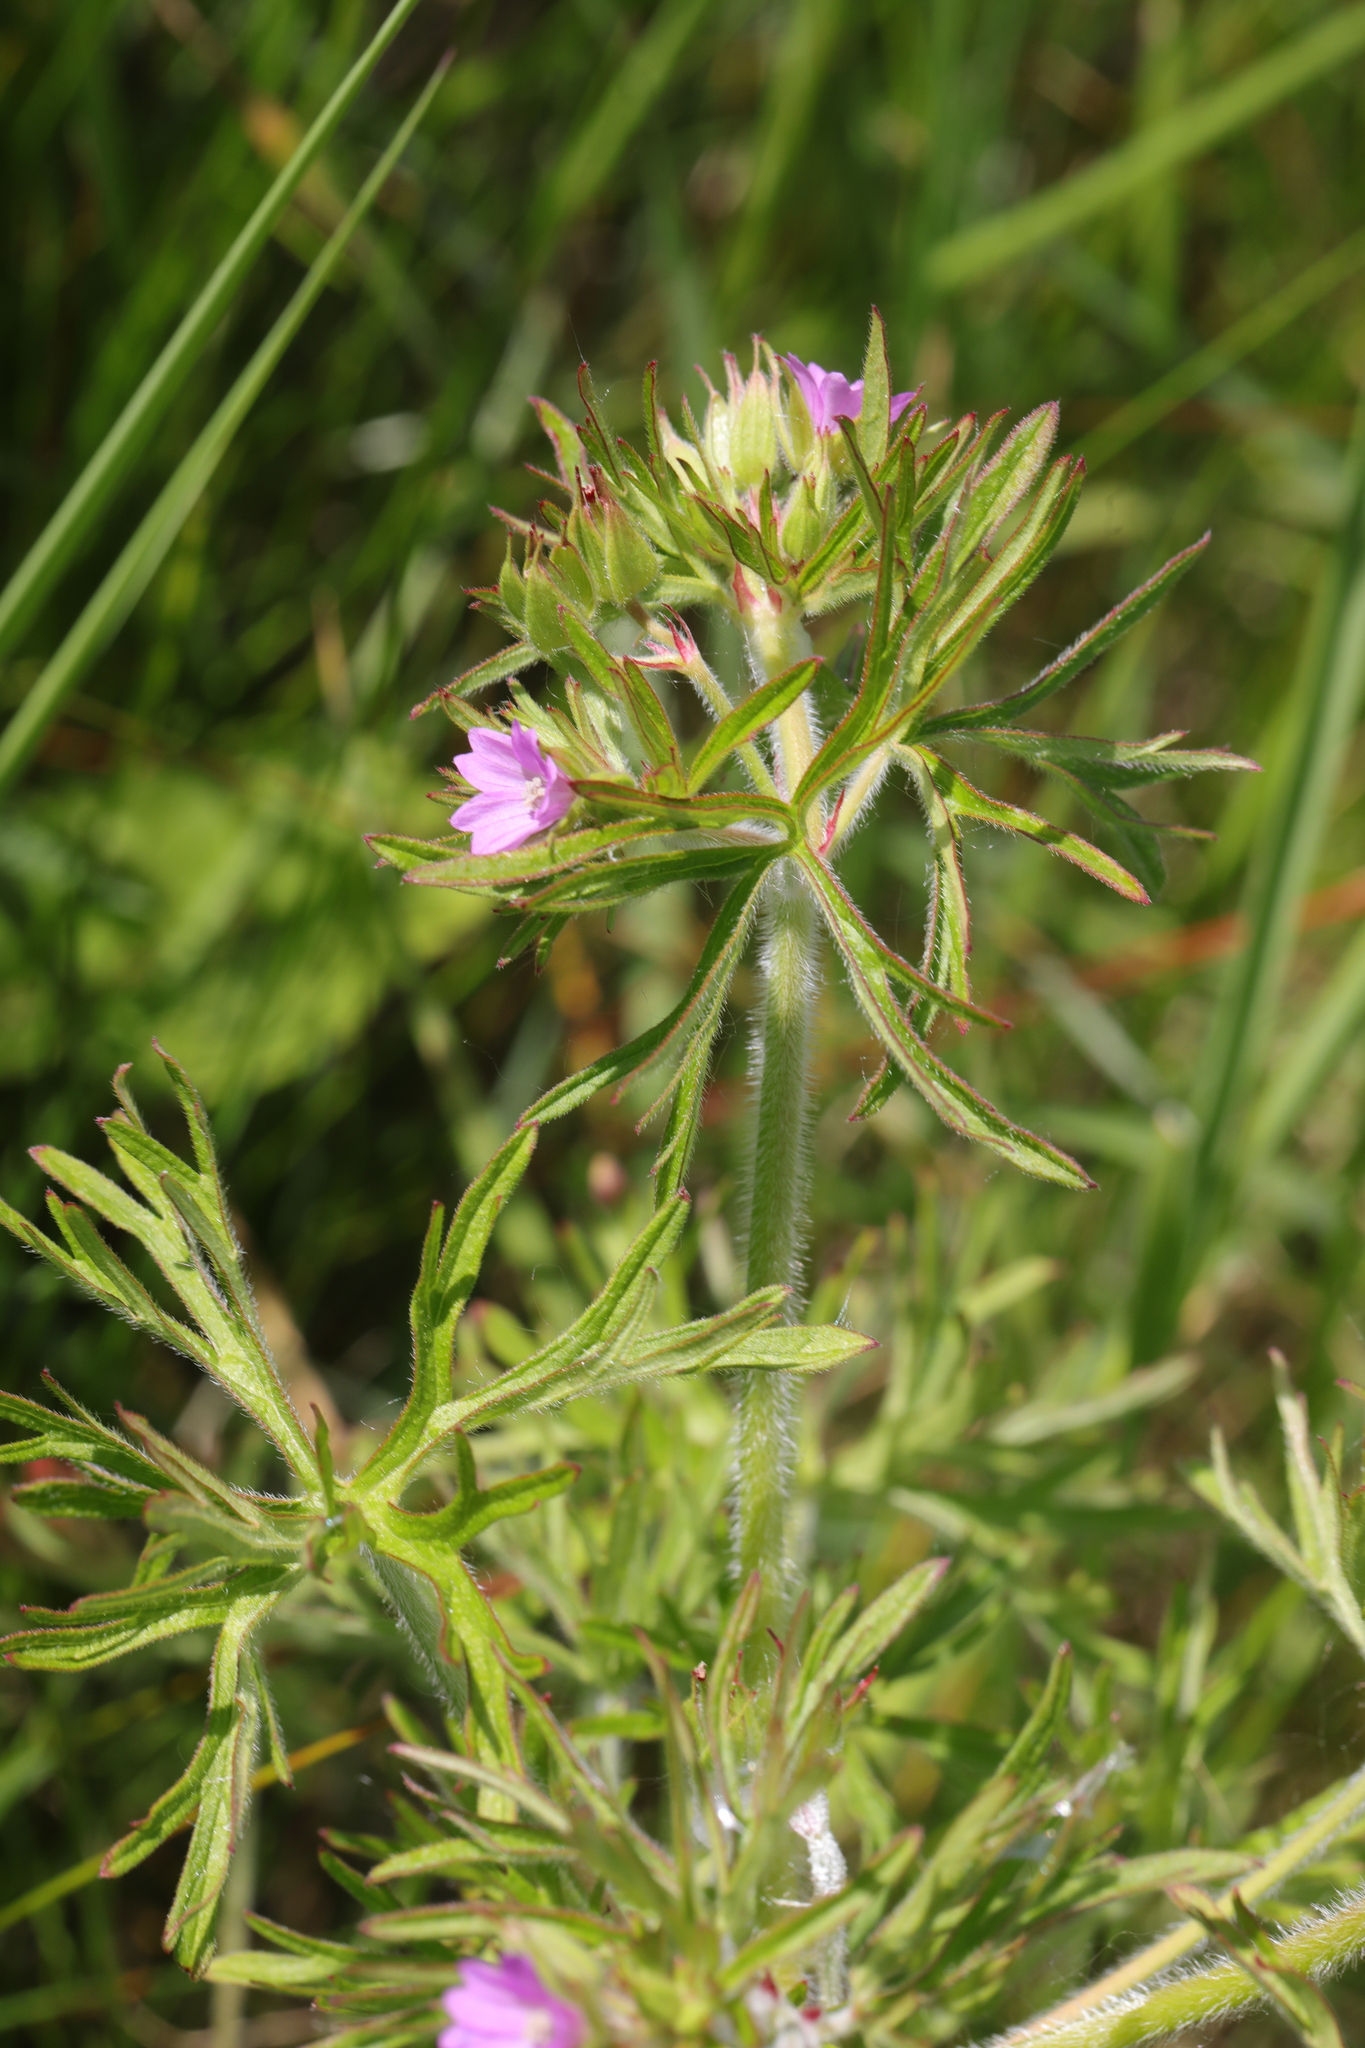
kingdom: Plantae
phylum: Tracheophyta
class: Magnoliopsida
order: Geraniales
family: Geraniaceae
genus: Geranium
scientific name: Geranium dissectum
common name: Cut-leaved crane's-bill
